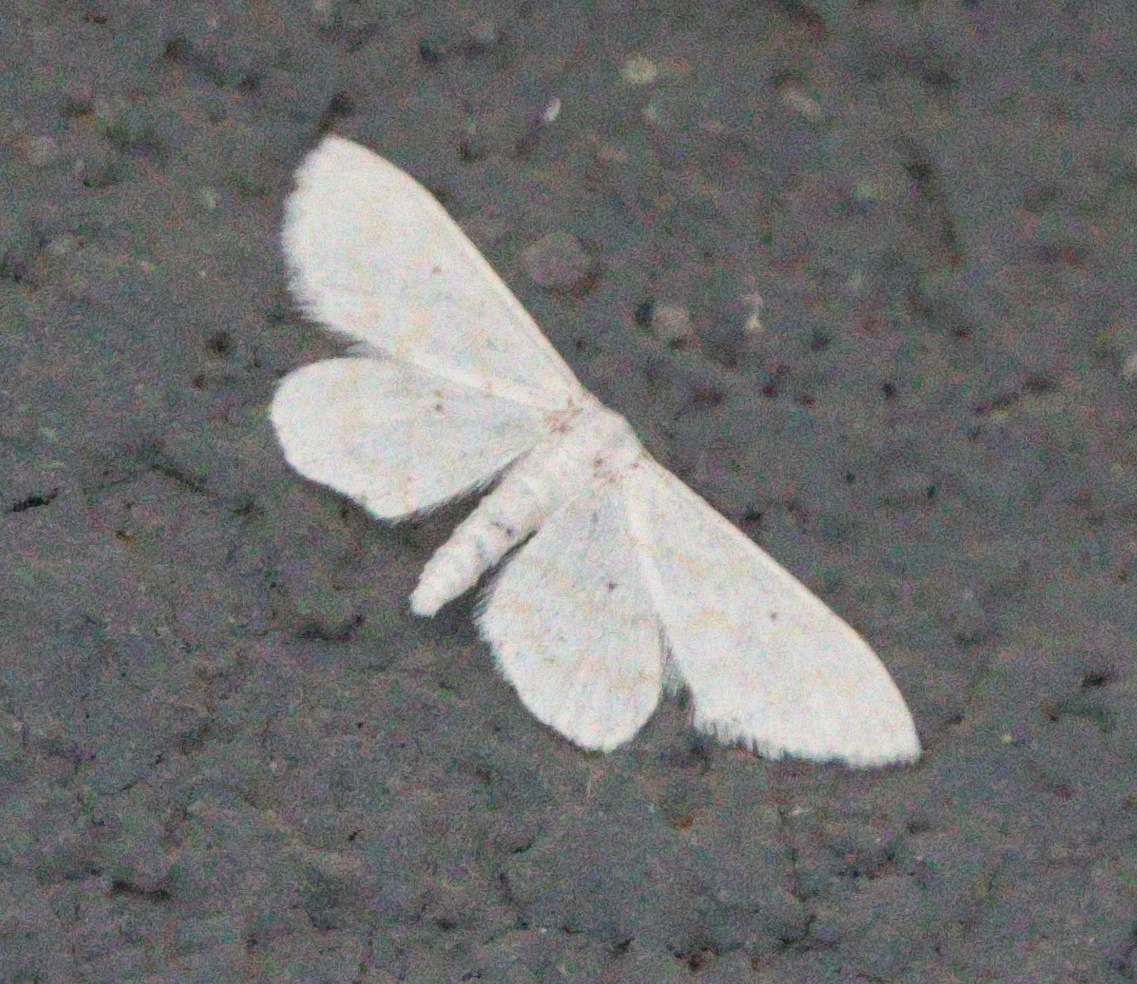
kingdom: Animalia
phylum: Arthropoda
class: Insecta
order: Lepidoptera
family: Geometridae
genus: Lobocleta
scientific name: Lobocleta peralbata
